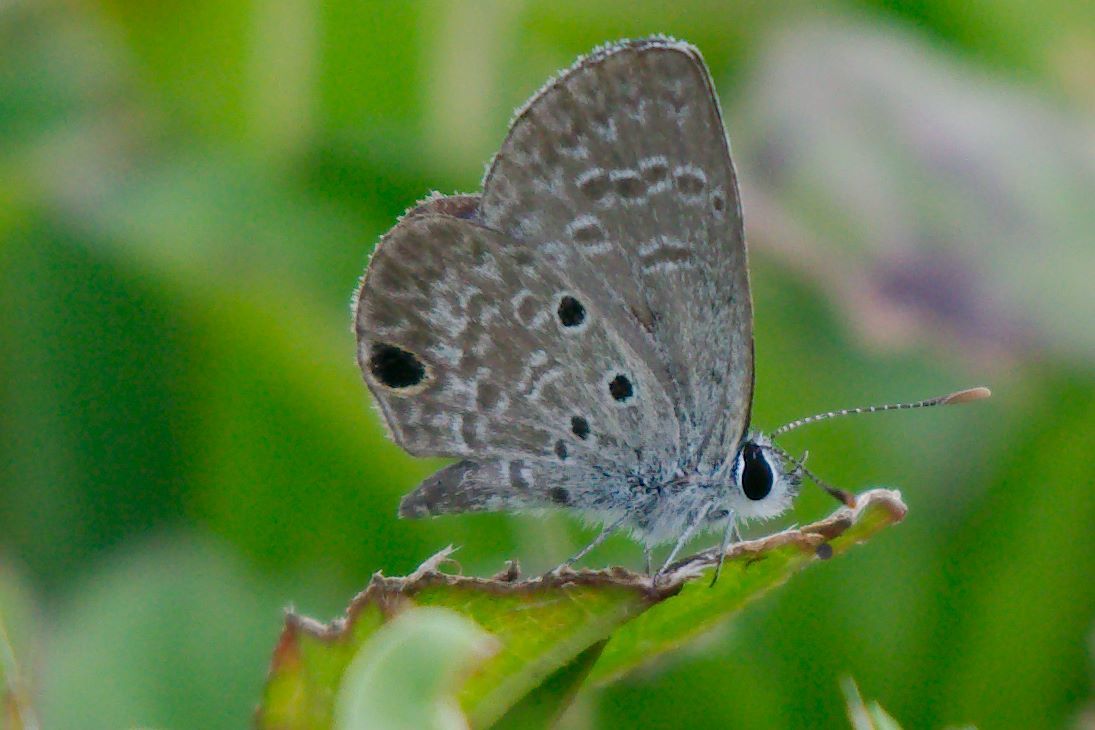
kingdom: Animalia
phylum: Arthropoda
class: Insecta
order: Lepidoptera
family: Lycaenidae
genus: Hemiargus
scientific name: Hemiargus ceraunus
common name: Ceraunus blue
